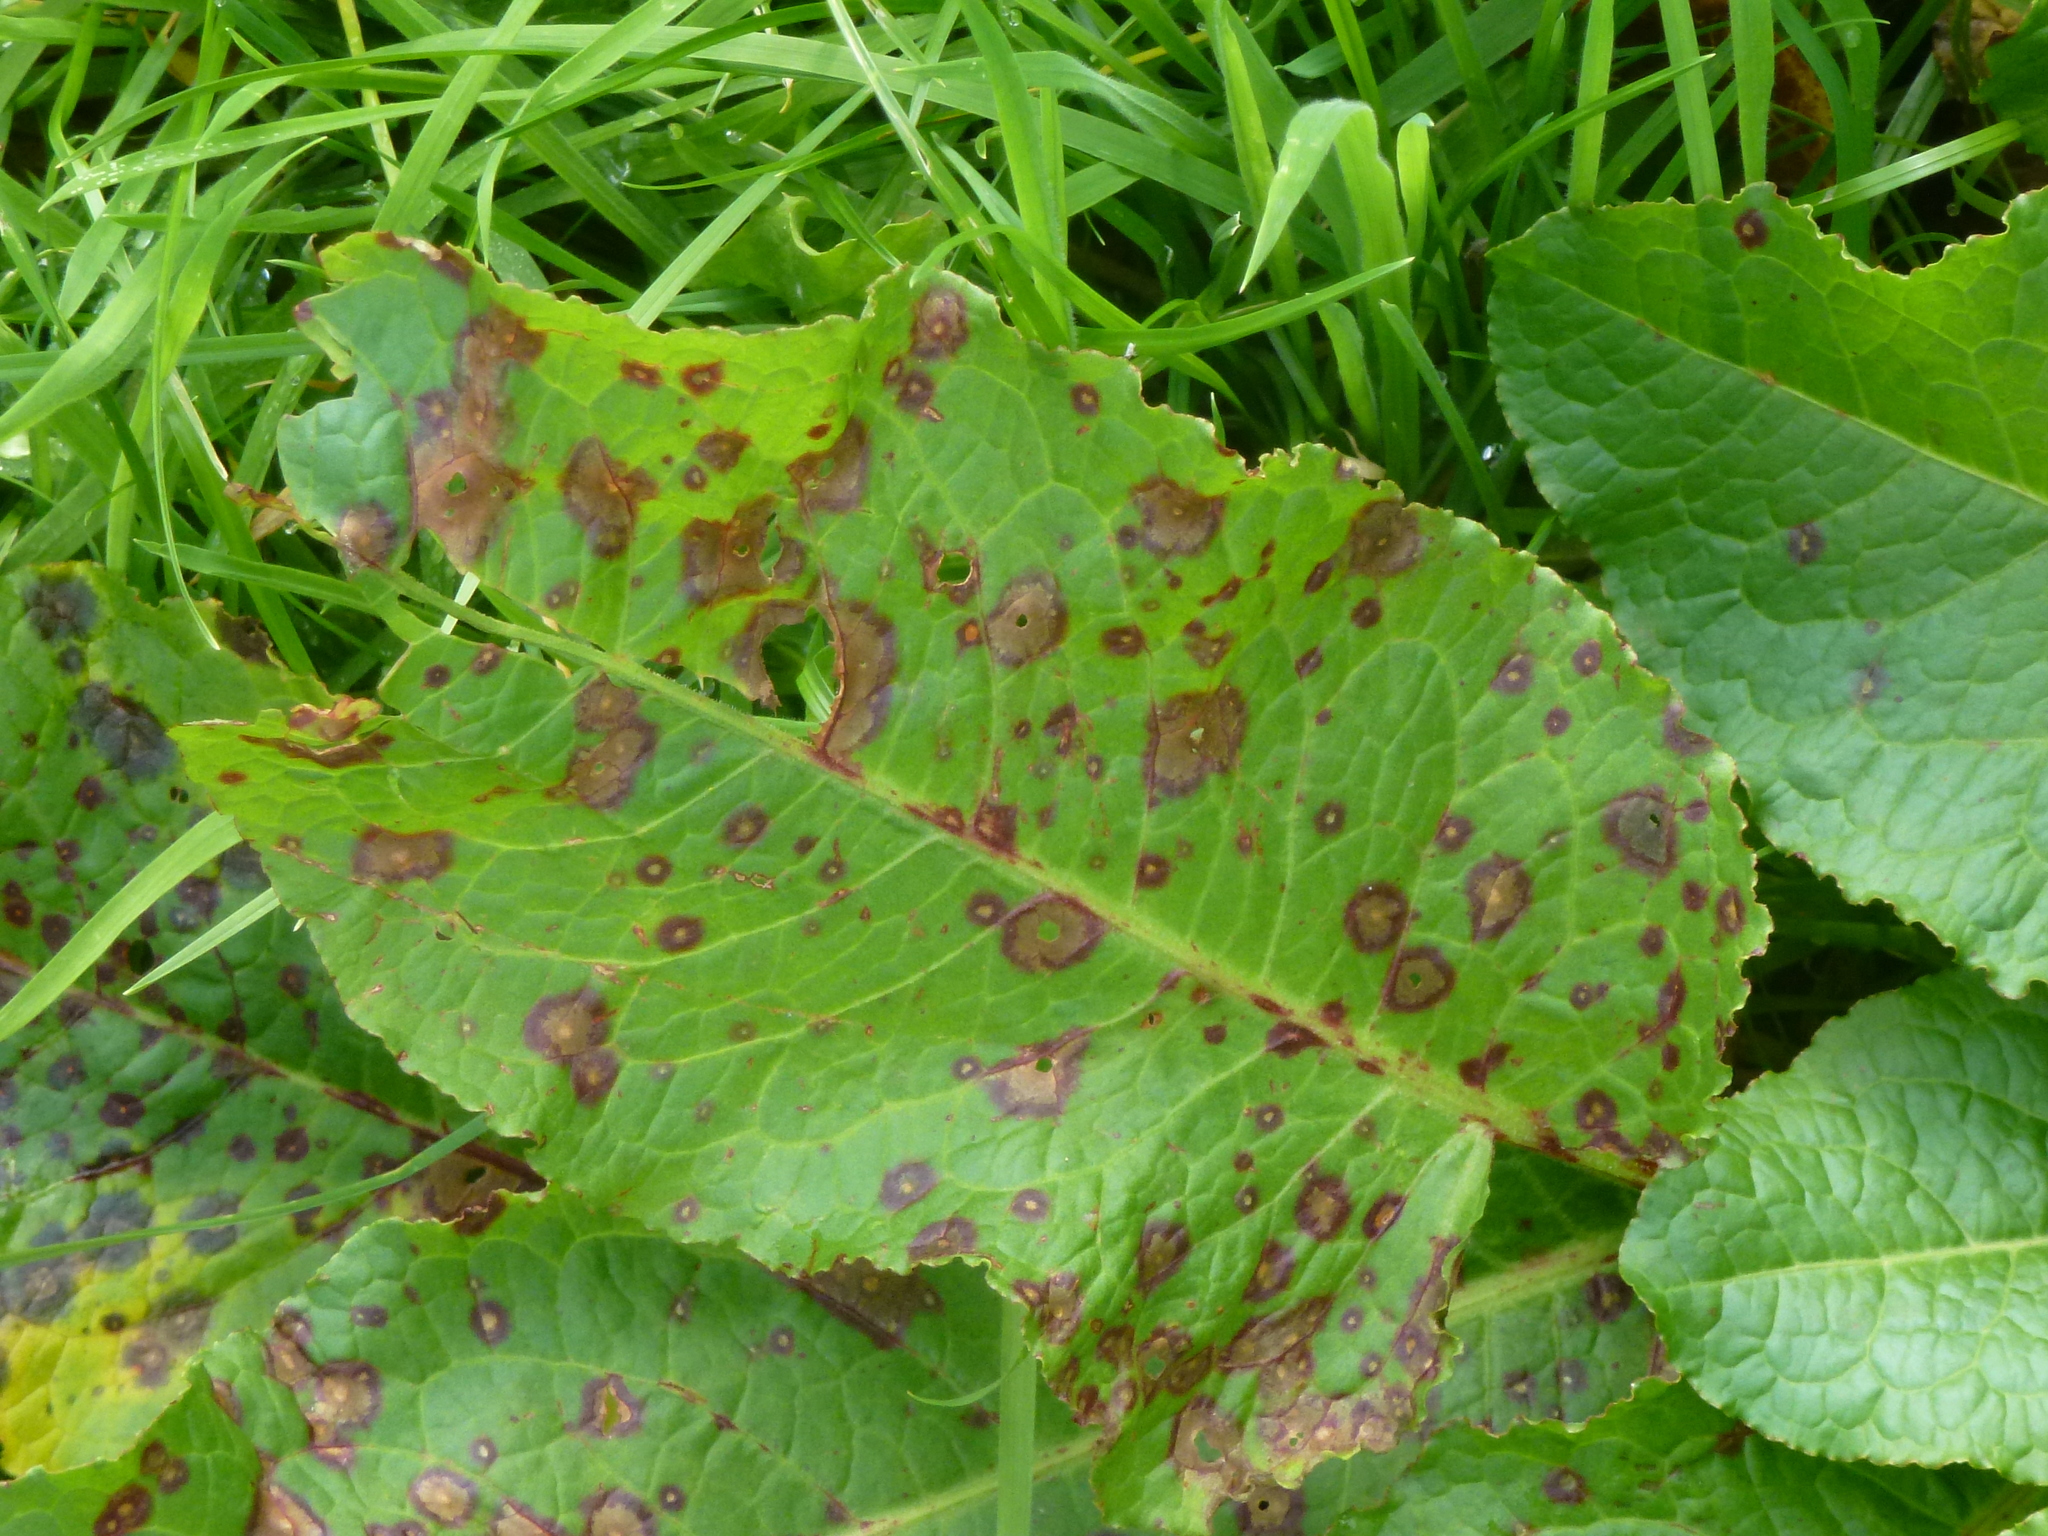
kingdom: Fungi
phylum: Ascomycota
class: Dothideomycetes
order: Mycosphaerellales
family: Mycosphaerellaceae
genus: Ramularia
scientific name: Ramularia rubella
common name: Red dock spot
